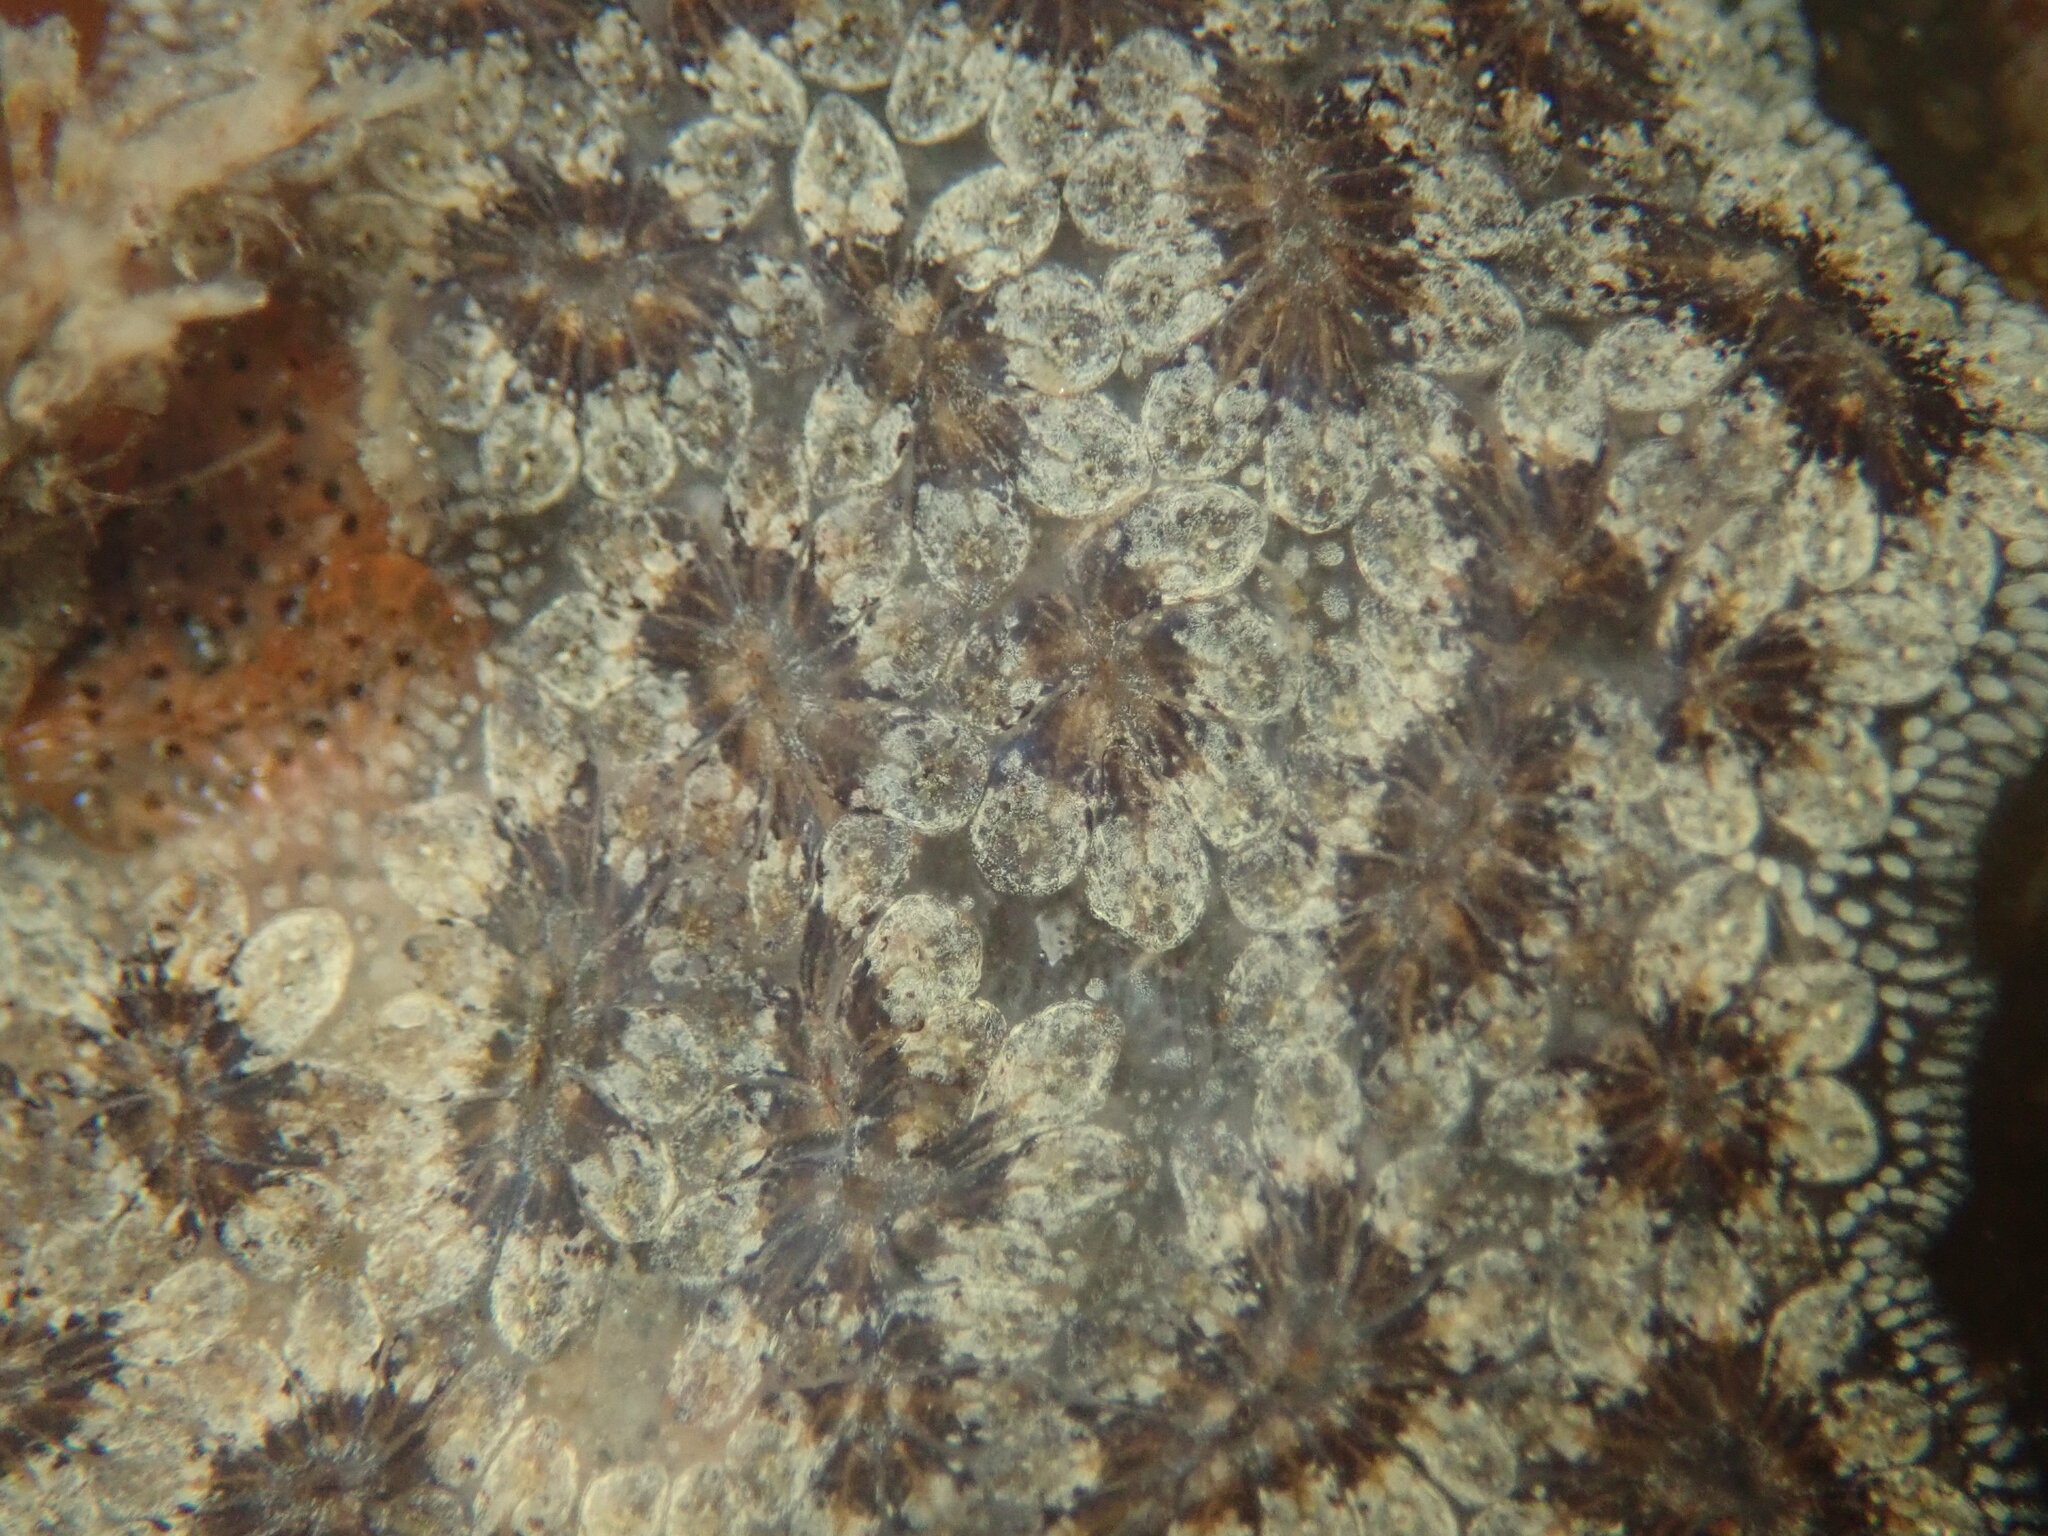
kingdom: Animalia
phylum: Chordata
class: Ascidiacea
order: Stolidobranchia
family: Styelidae
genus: Botryllus
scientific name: Botryllus schlosseri
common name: Golden star tunicate
